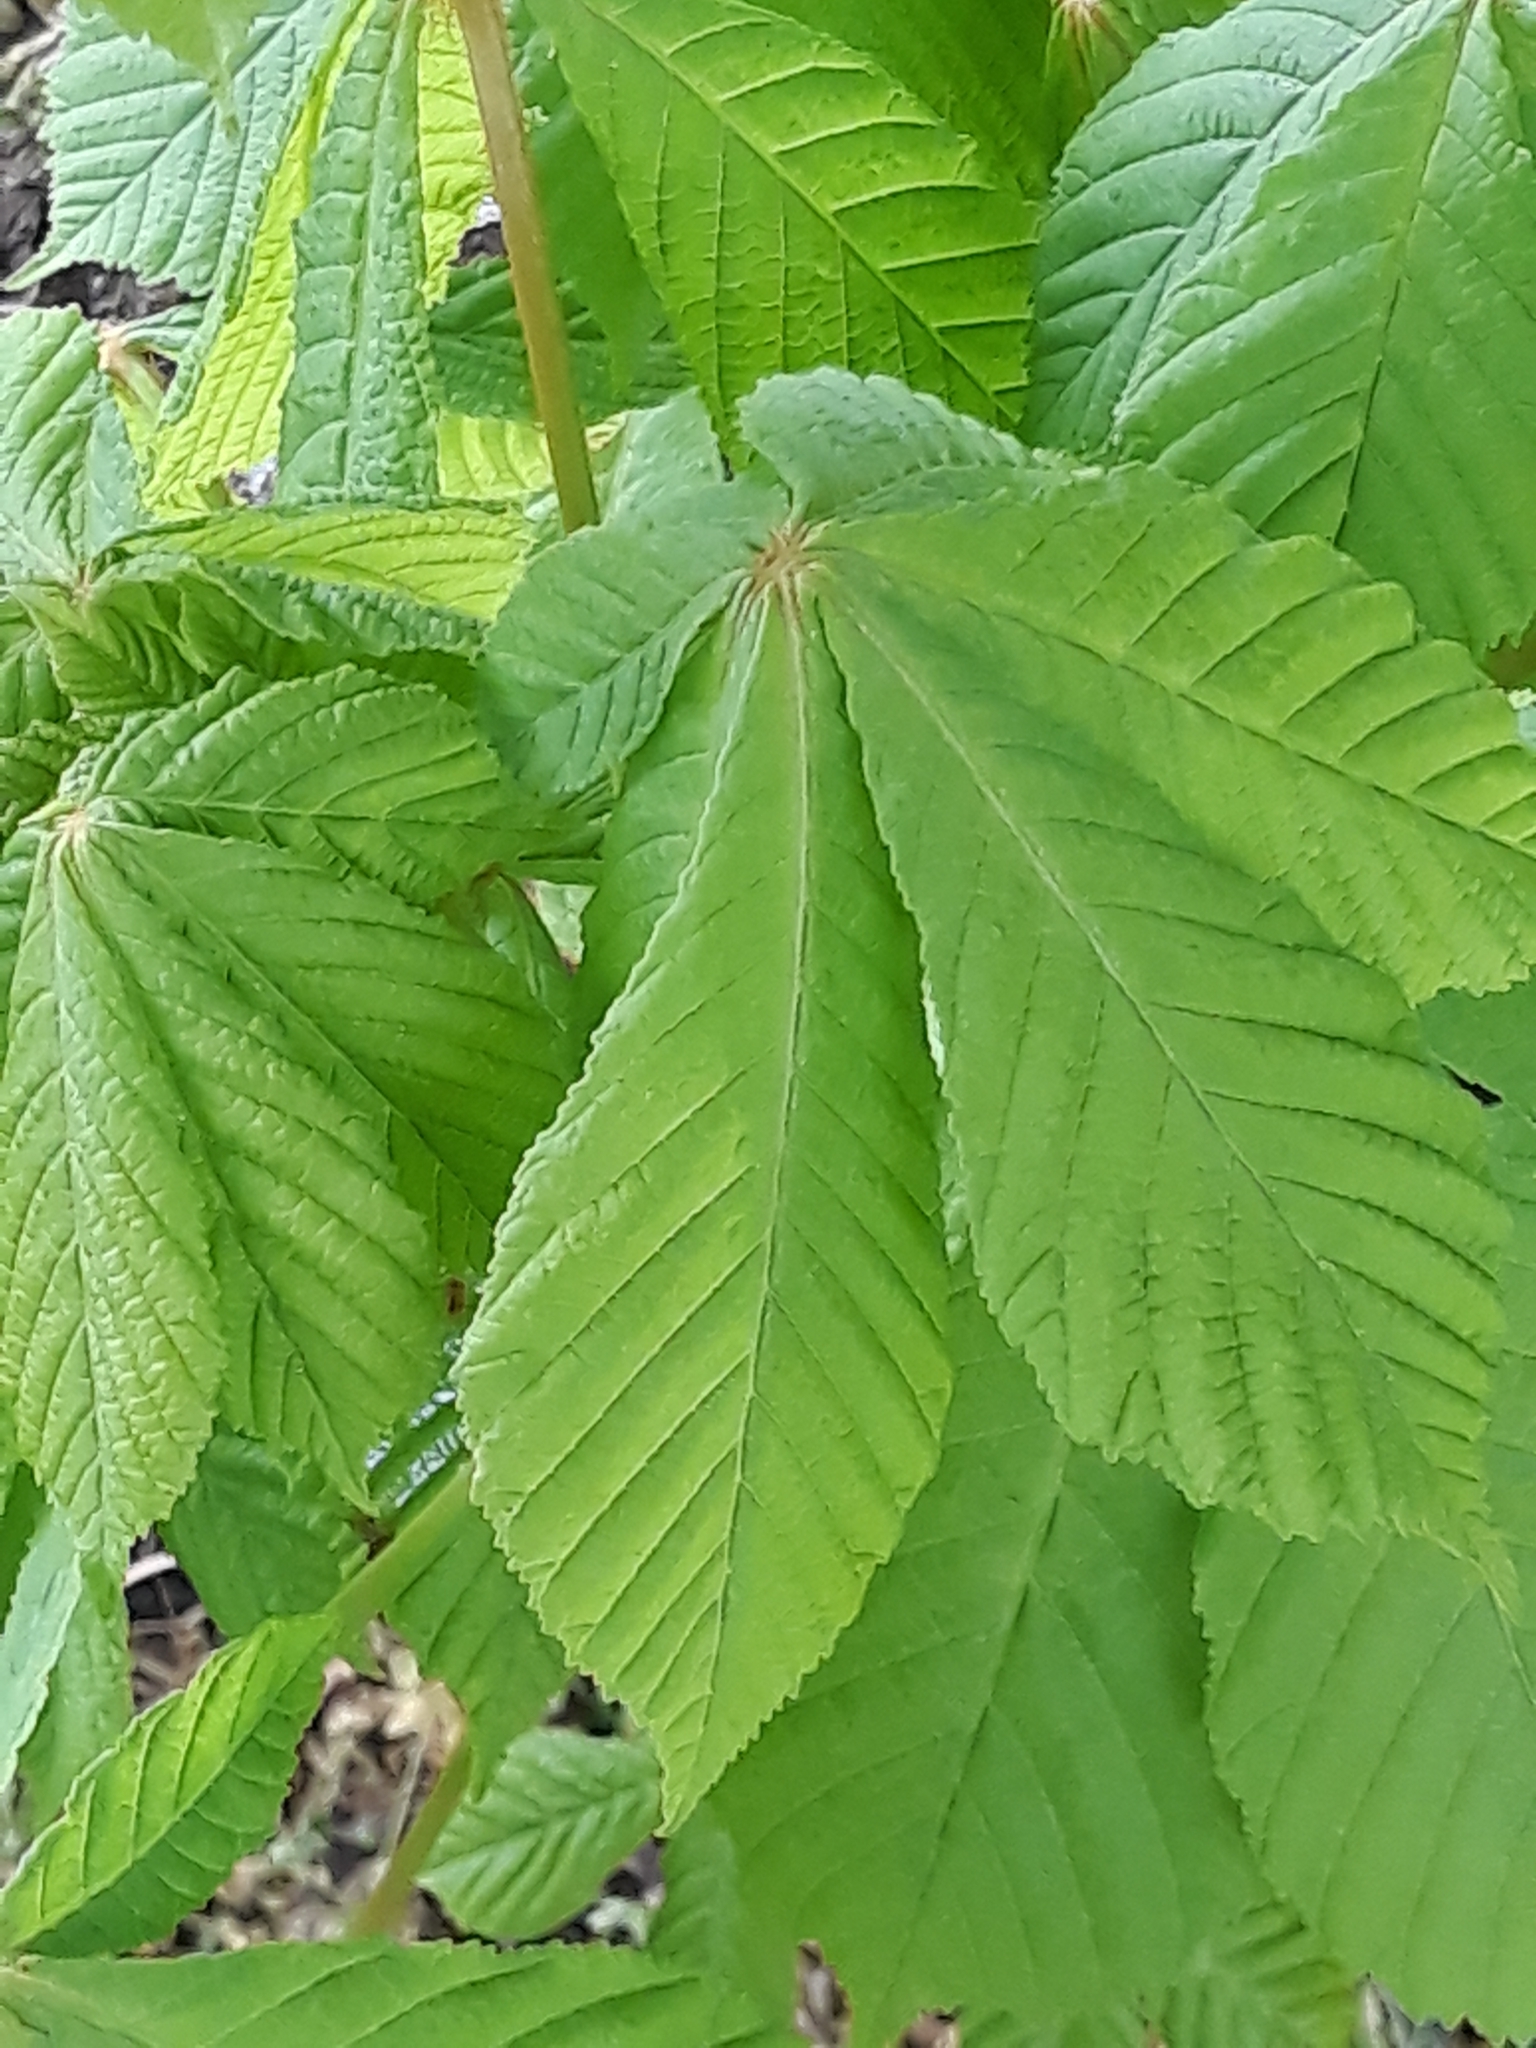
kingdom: Plantae
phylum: Tracheophyta
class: Magnoliopsida
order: Sapindales
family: Sapindaceae
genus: Aesculus
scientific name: Aesculus hippocastanum
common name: Horse-chestnut
